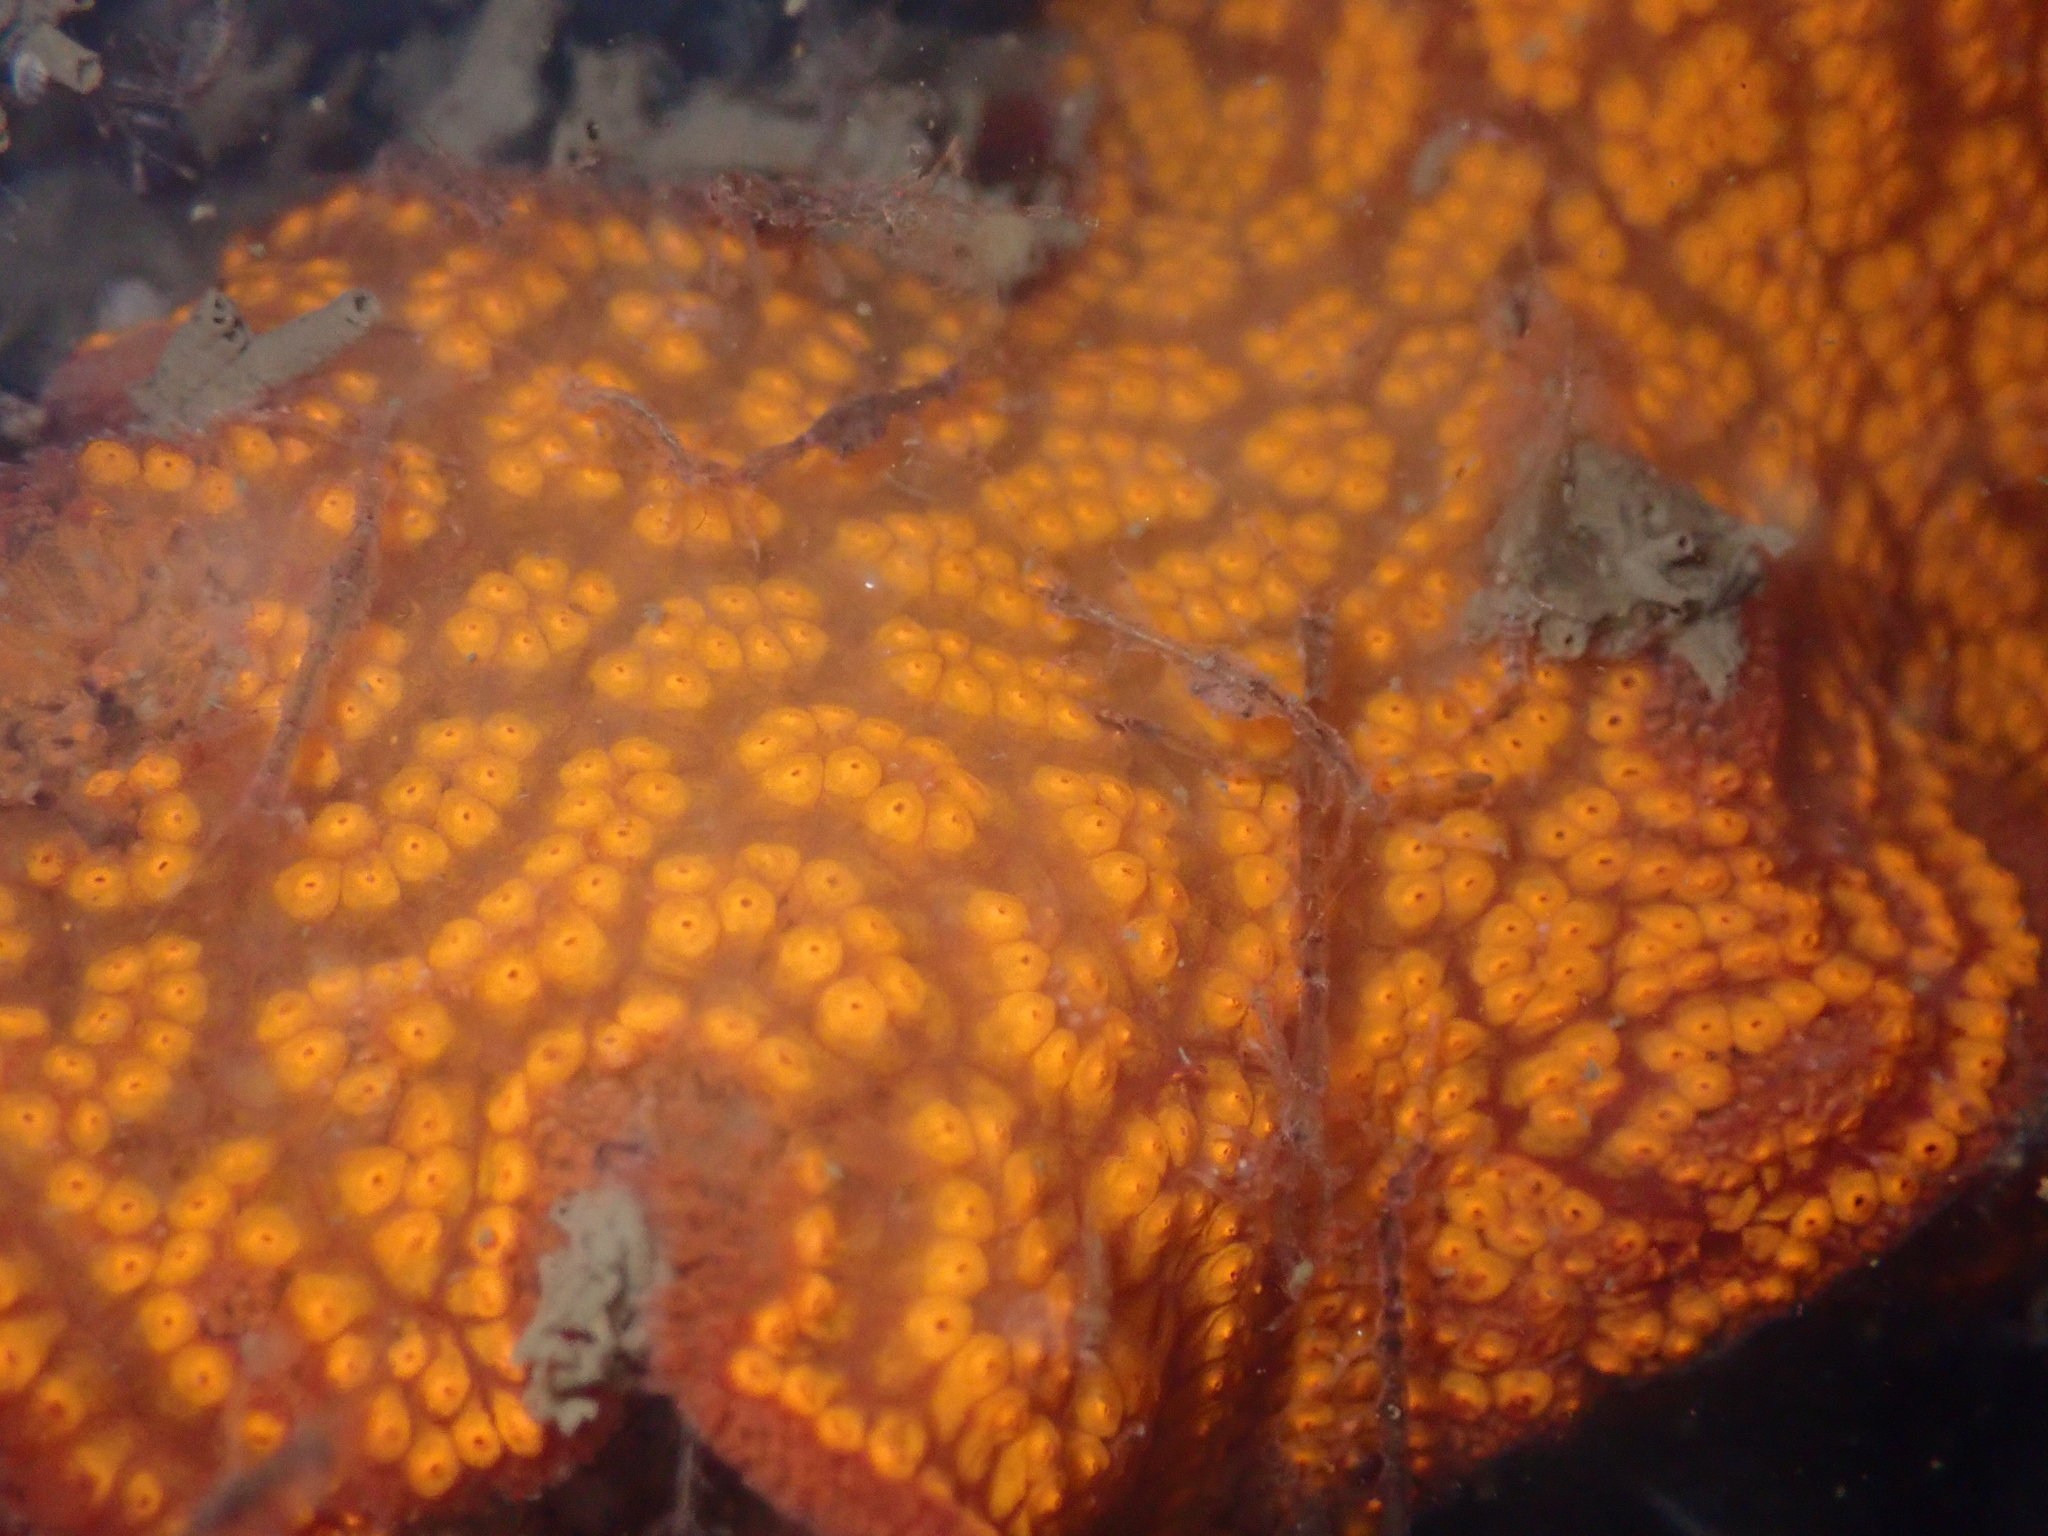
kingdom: Animalia
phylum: Chordata
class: Ascidiacea
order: Stolidobranchia
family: Styelidae
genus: Botrylloides
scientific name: Botrylloides diegensis
